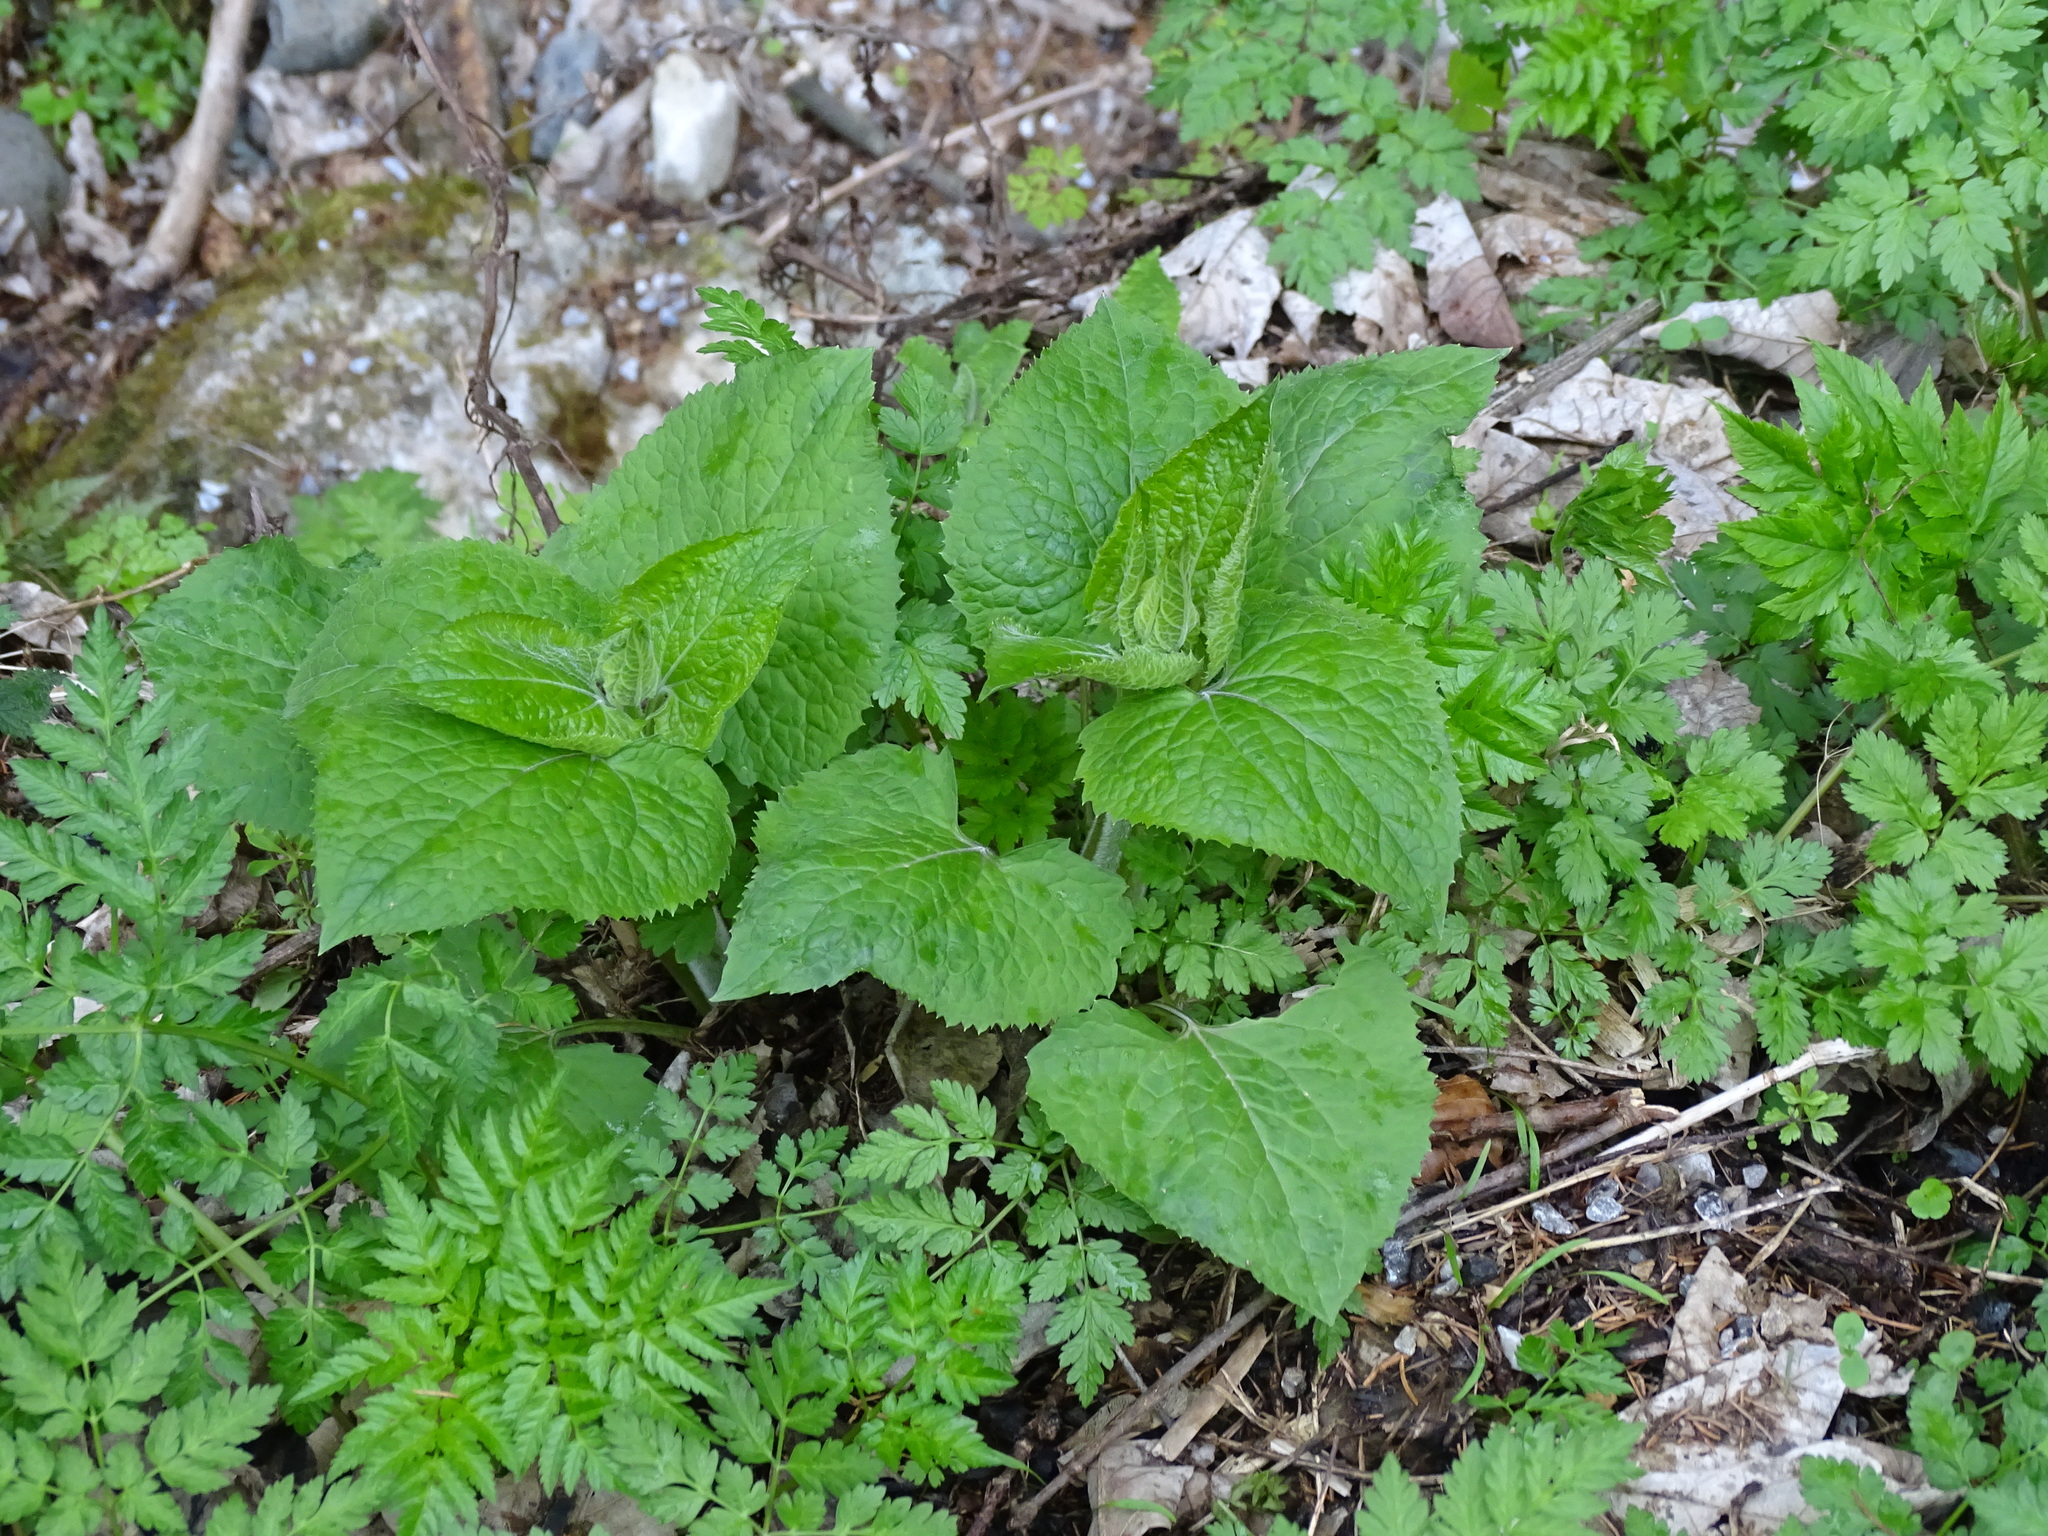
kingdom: Plantae
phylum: Tracheophyta
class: Magnoliopsida
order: Brassicales
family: Brassicaceae
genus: Lunaria
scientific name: Lunaria rediviva
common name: Perennial honesty
